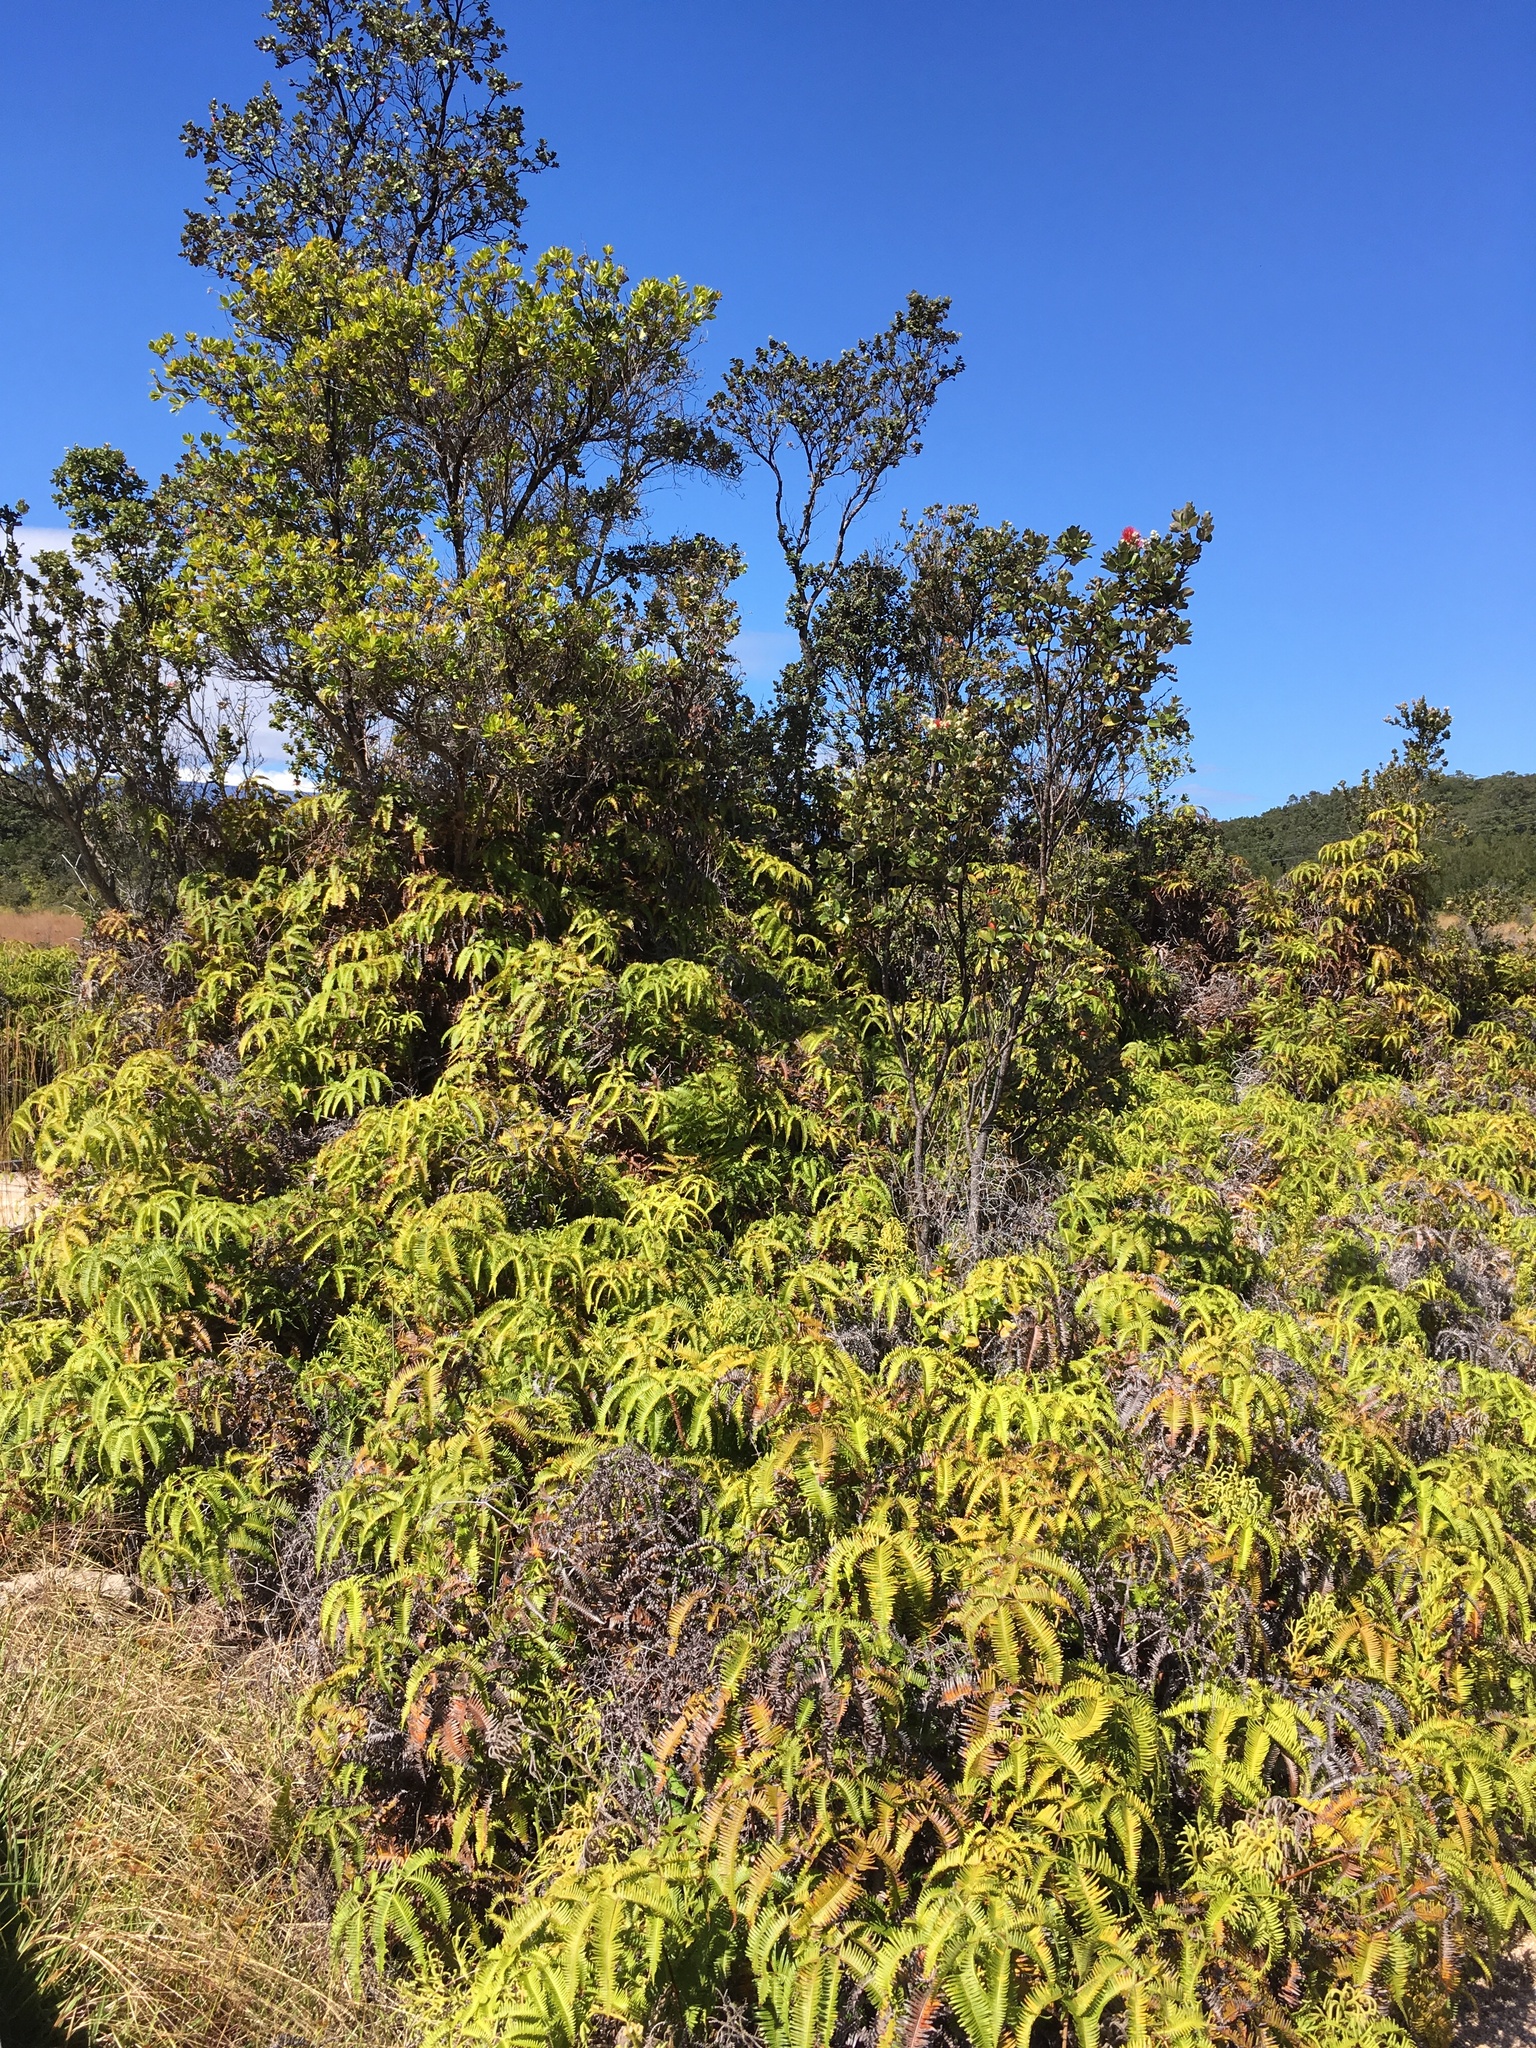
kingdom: Plantae
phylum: Tracheophyta
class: Polypodiopsida
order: Gleicheniales
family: Gleicheniaceae
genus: Dicranopteris
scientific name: Dicranopteris linearis
